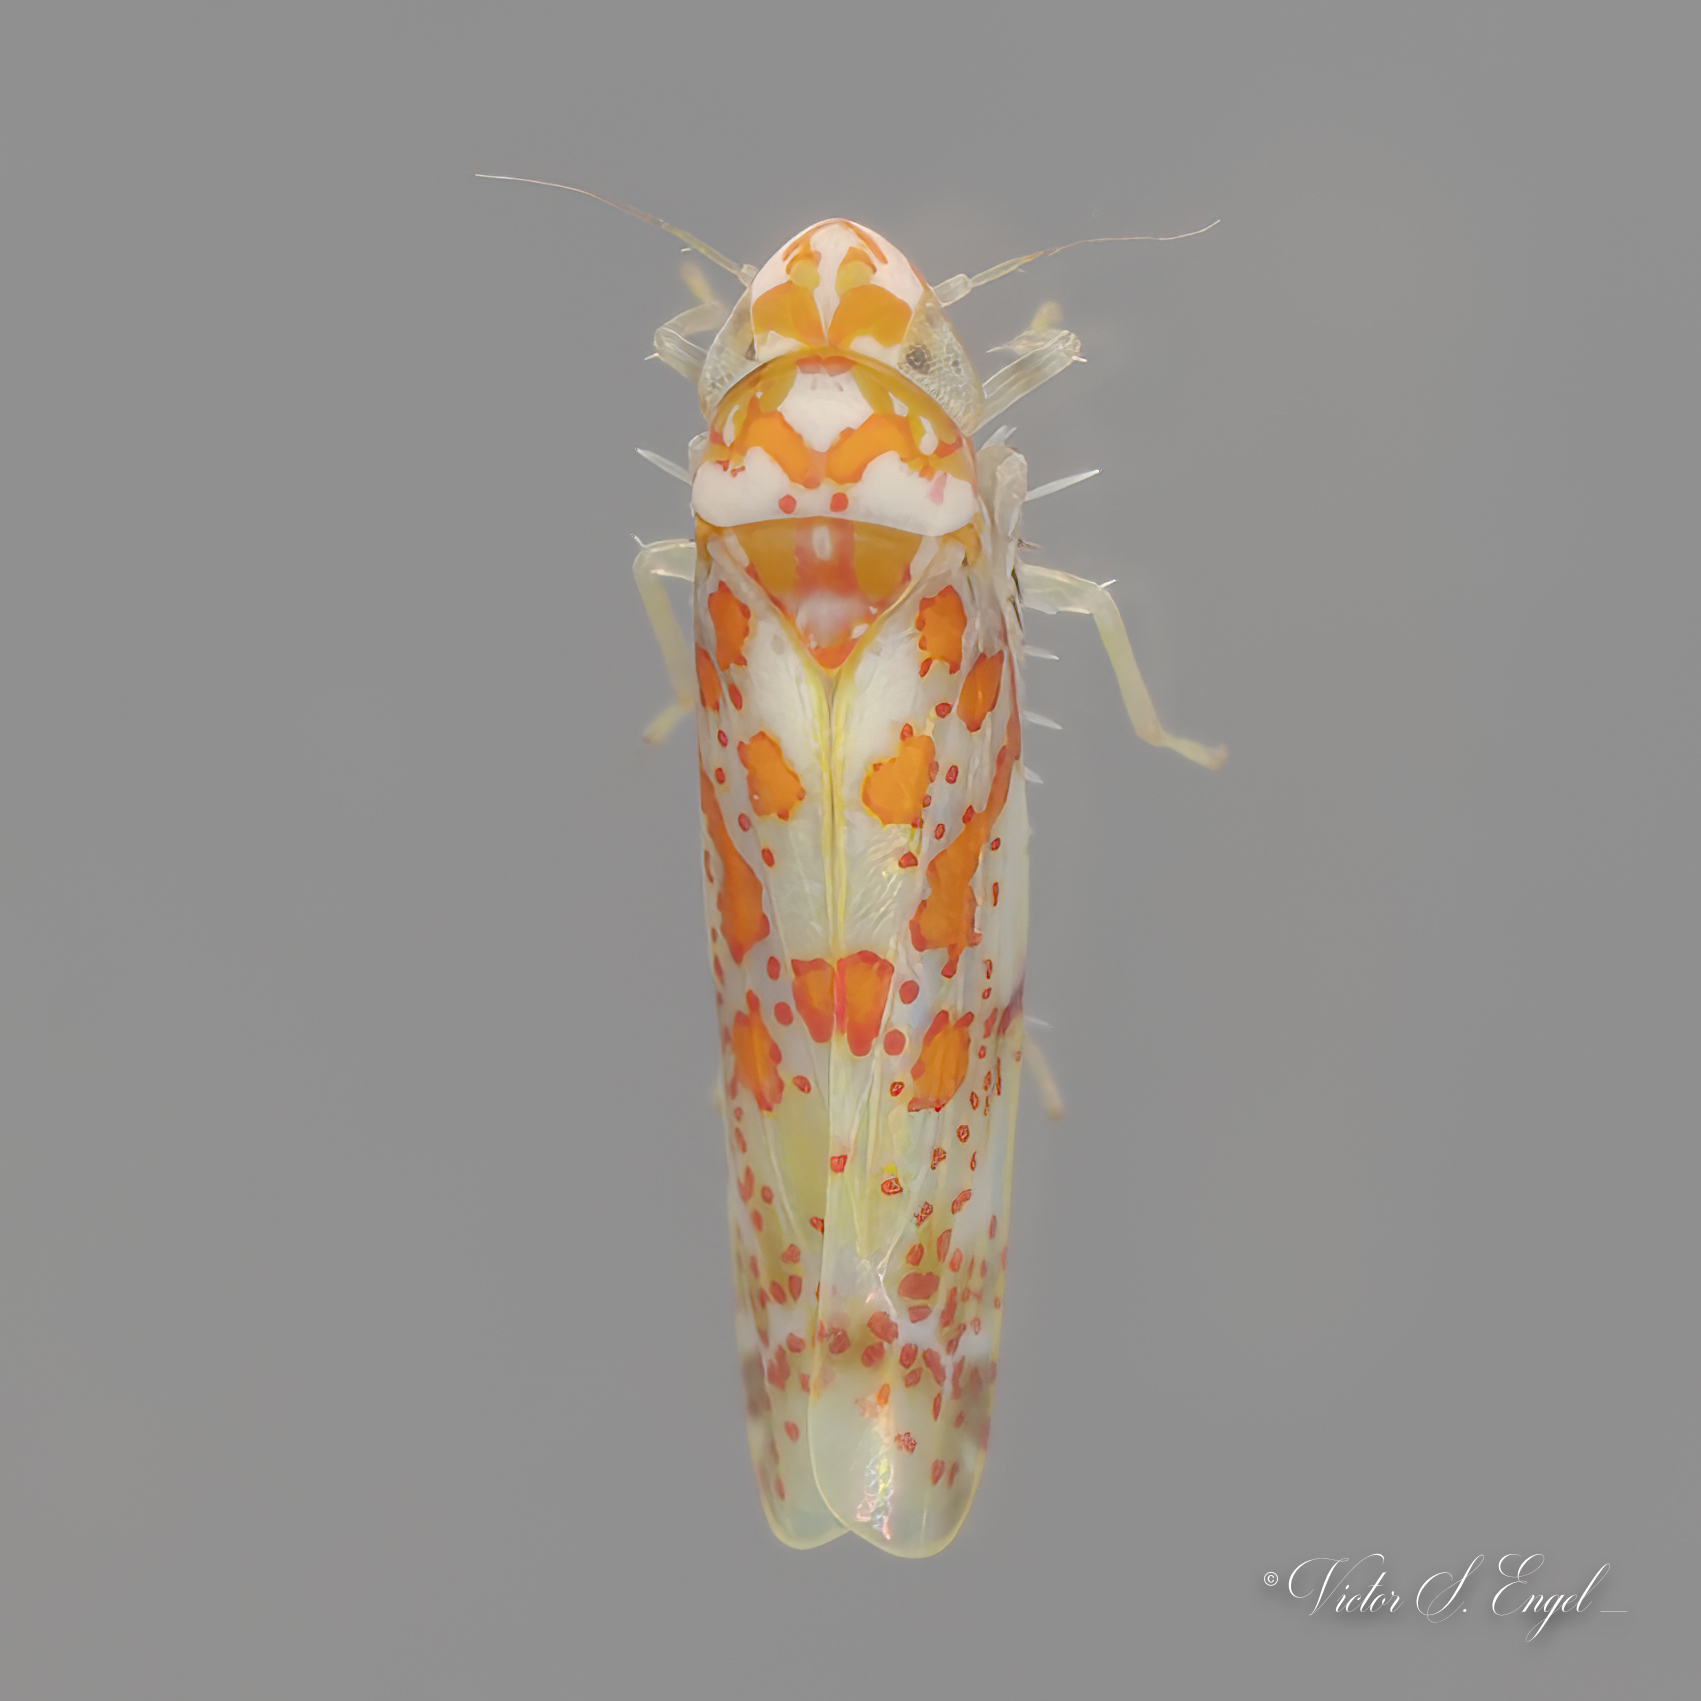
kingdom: Animalia
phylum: Arthropoda
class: Insecta
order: Hemiptera
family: Cicadellidae
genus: Dikrella
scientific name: Dikrella maculata
